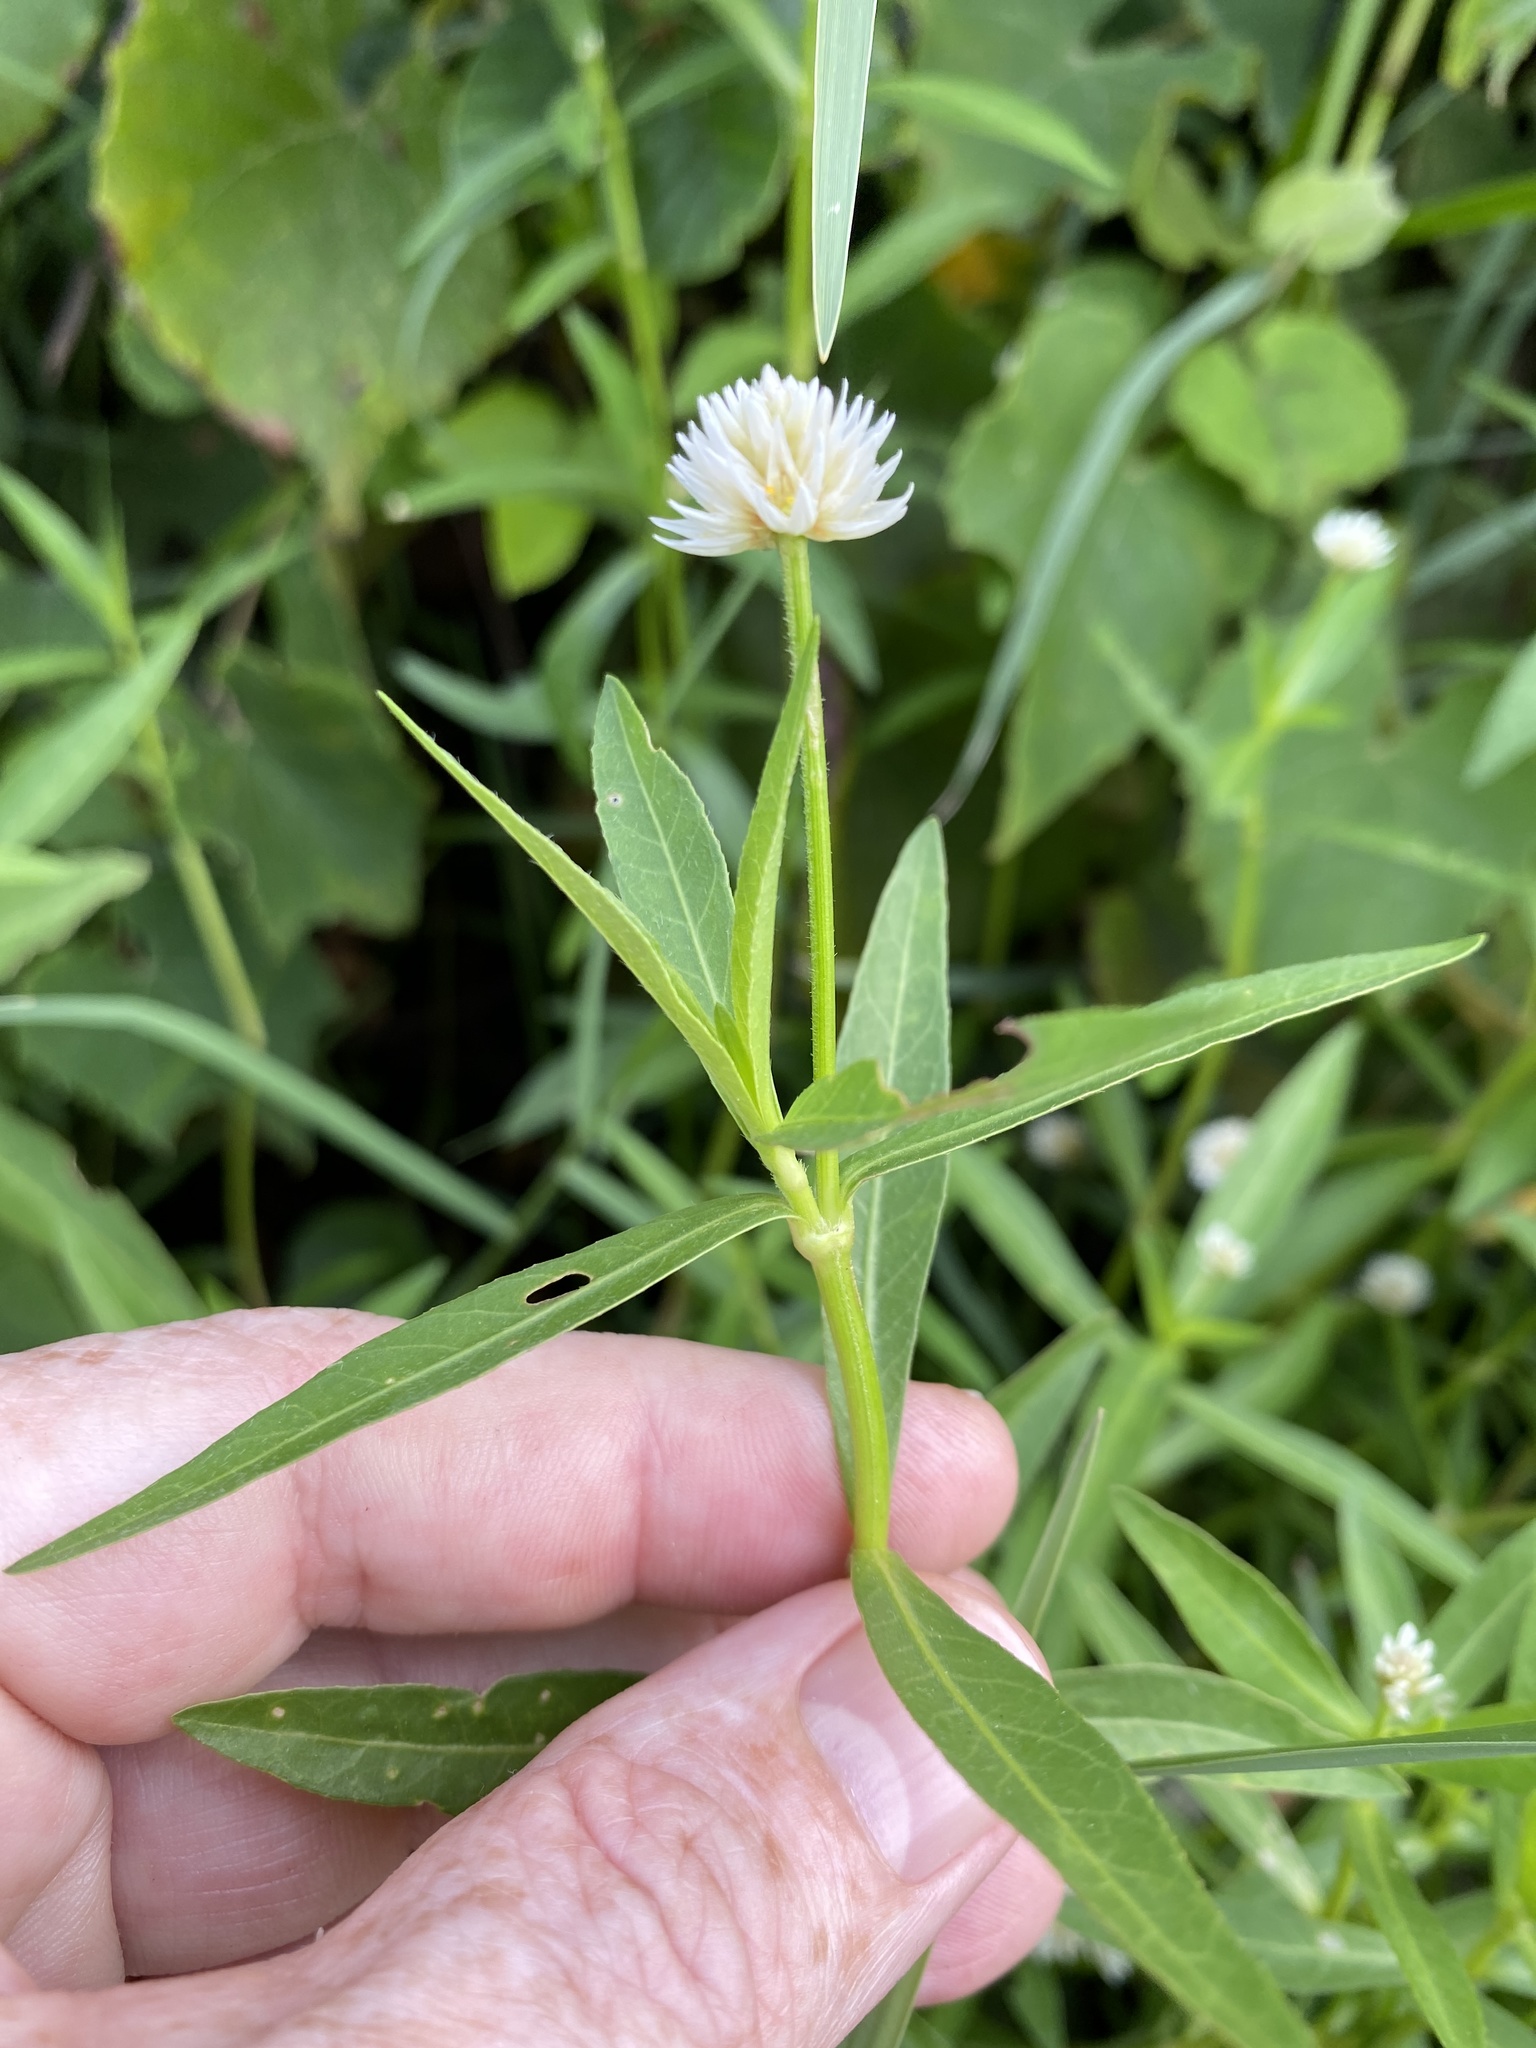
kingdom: Plantae
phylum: Tracheophyta
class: Magnoliopsida
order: Caryophyllales
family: Amaranthaceae
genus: Alternanthera
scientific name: Alternanthera philoxeroides
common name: Alligatorweed
